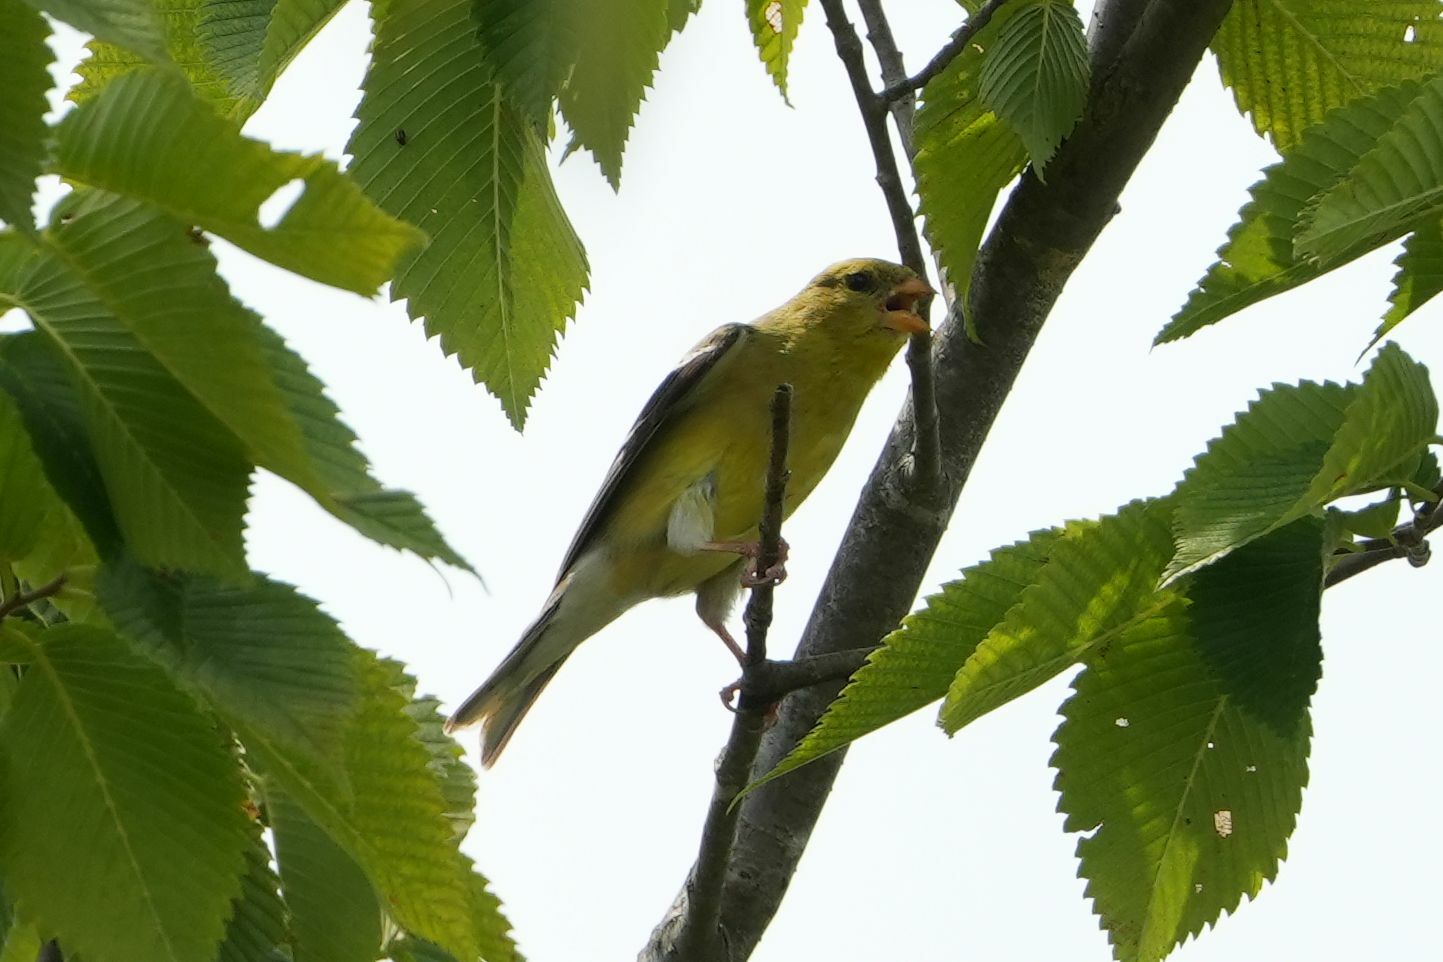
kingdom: Animalia
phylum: Chordata
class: Aves
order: Passeriformes
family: Fringillidae
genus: Spinus
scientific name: Spinus tristis
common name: American goldfinch
